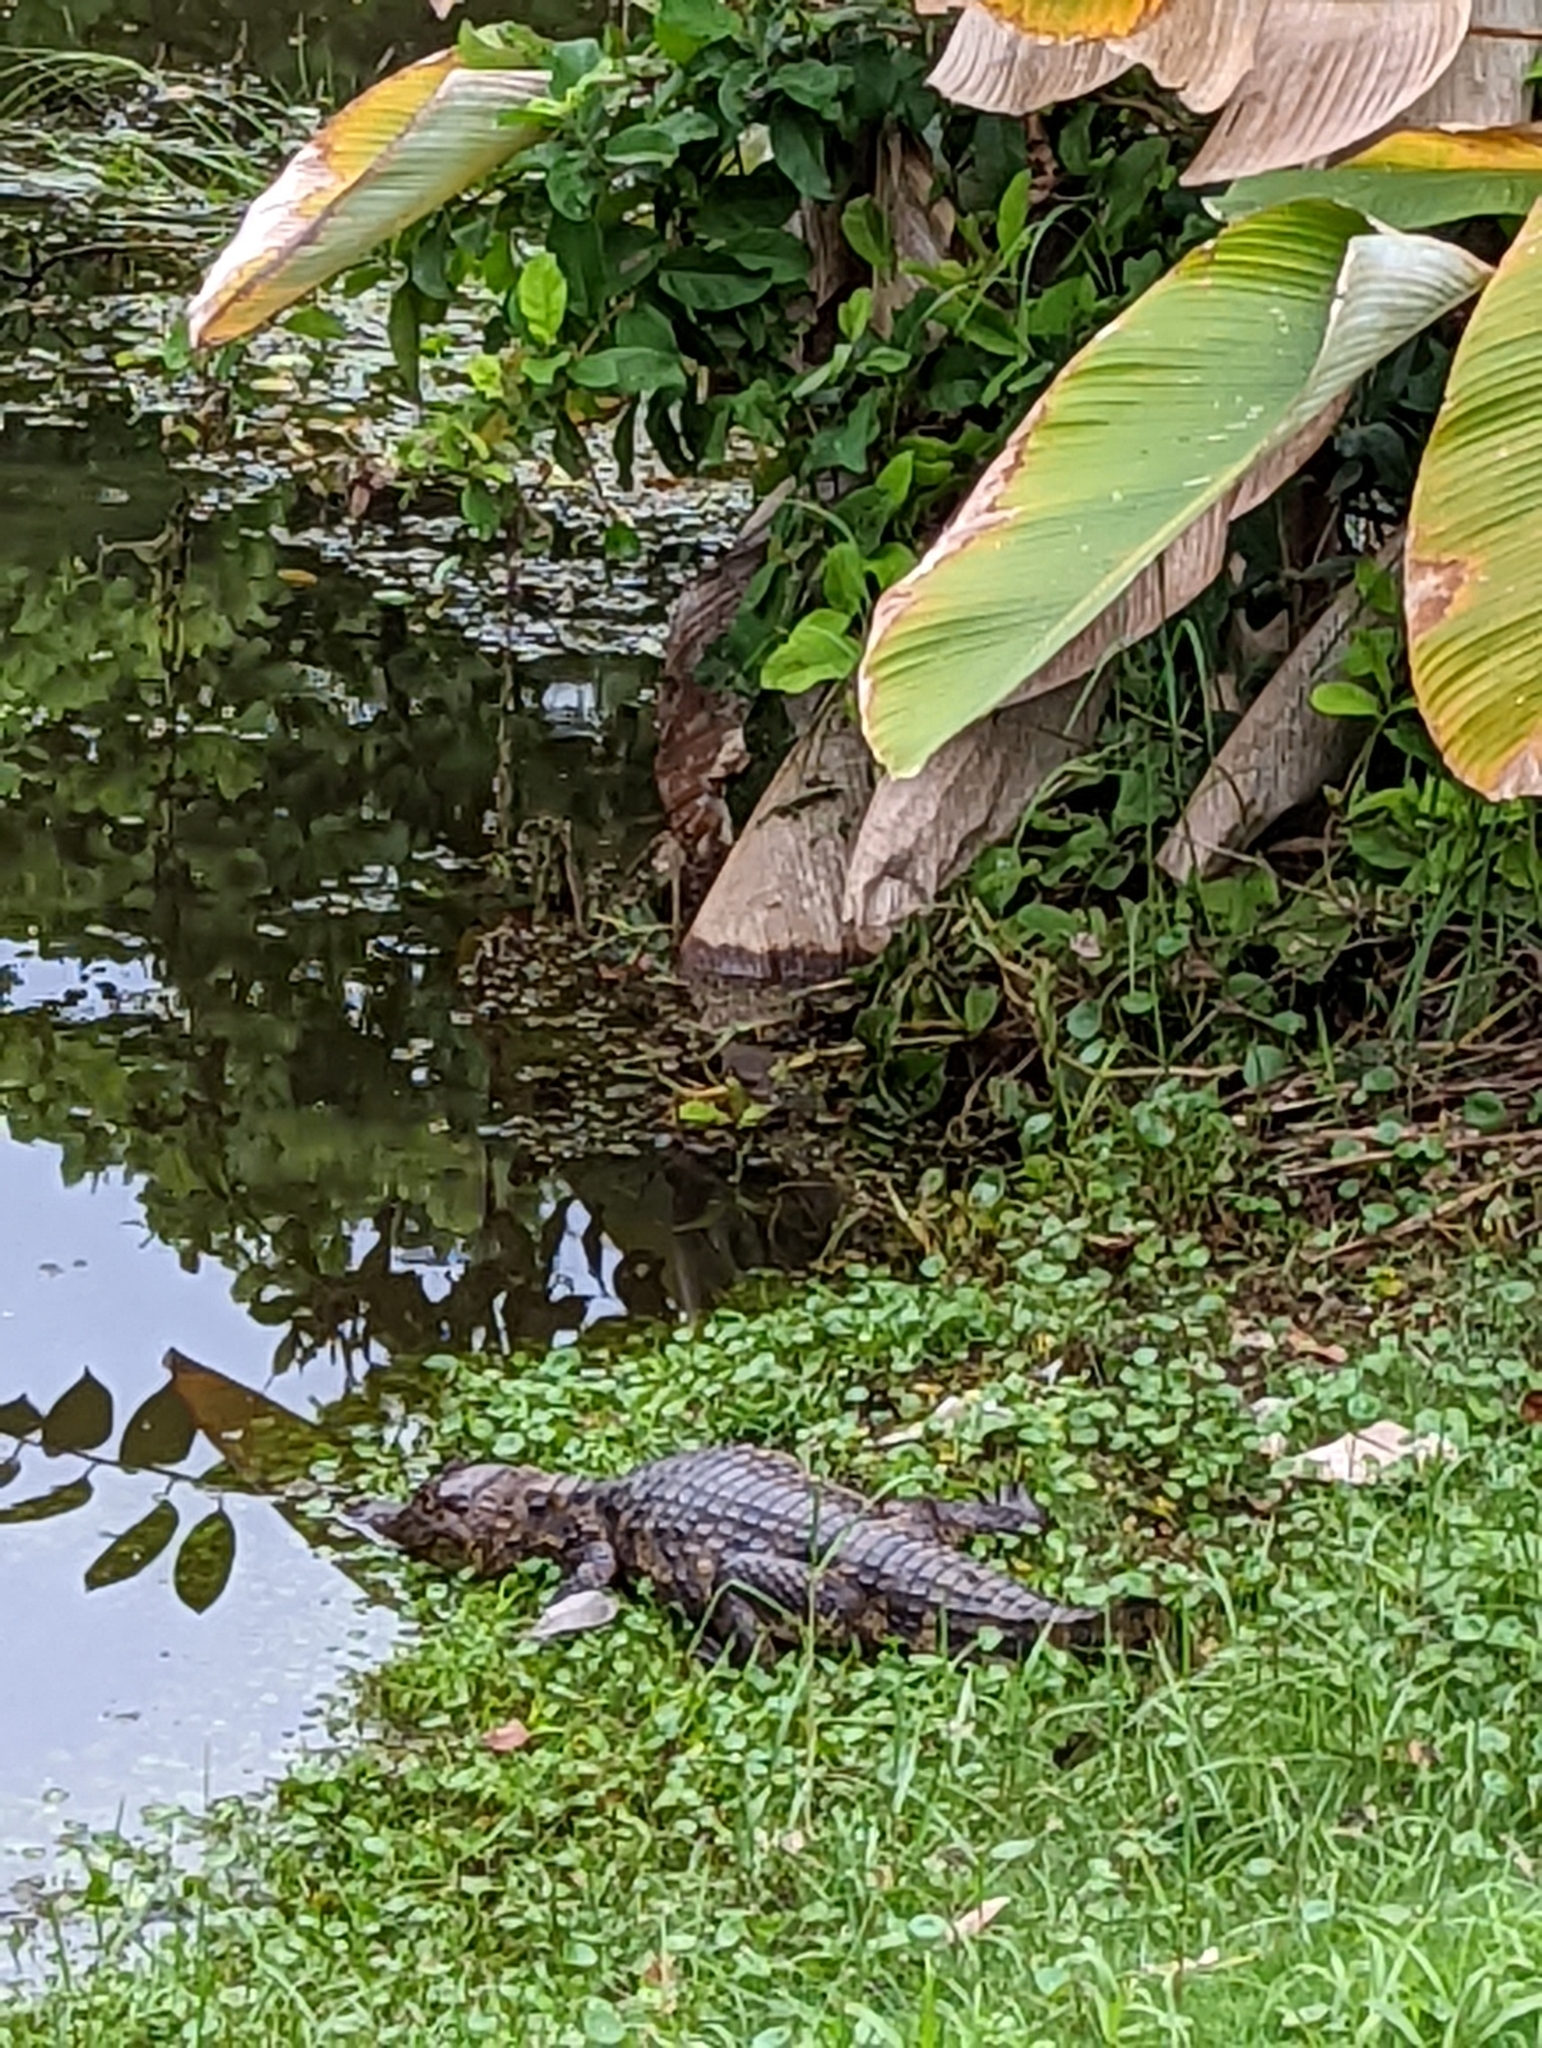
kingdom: Animalia
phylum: Chordata
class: Crocodylia
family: Alligatoridae
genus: Caiman
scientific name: Caiman crocodilus
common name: Common caiman
